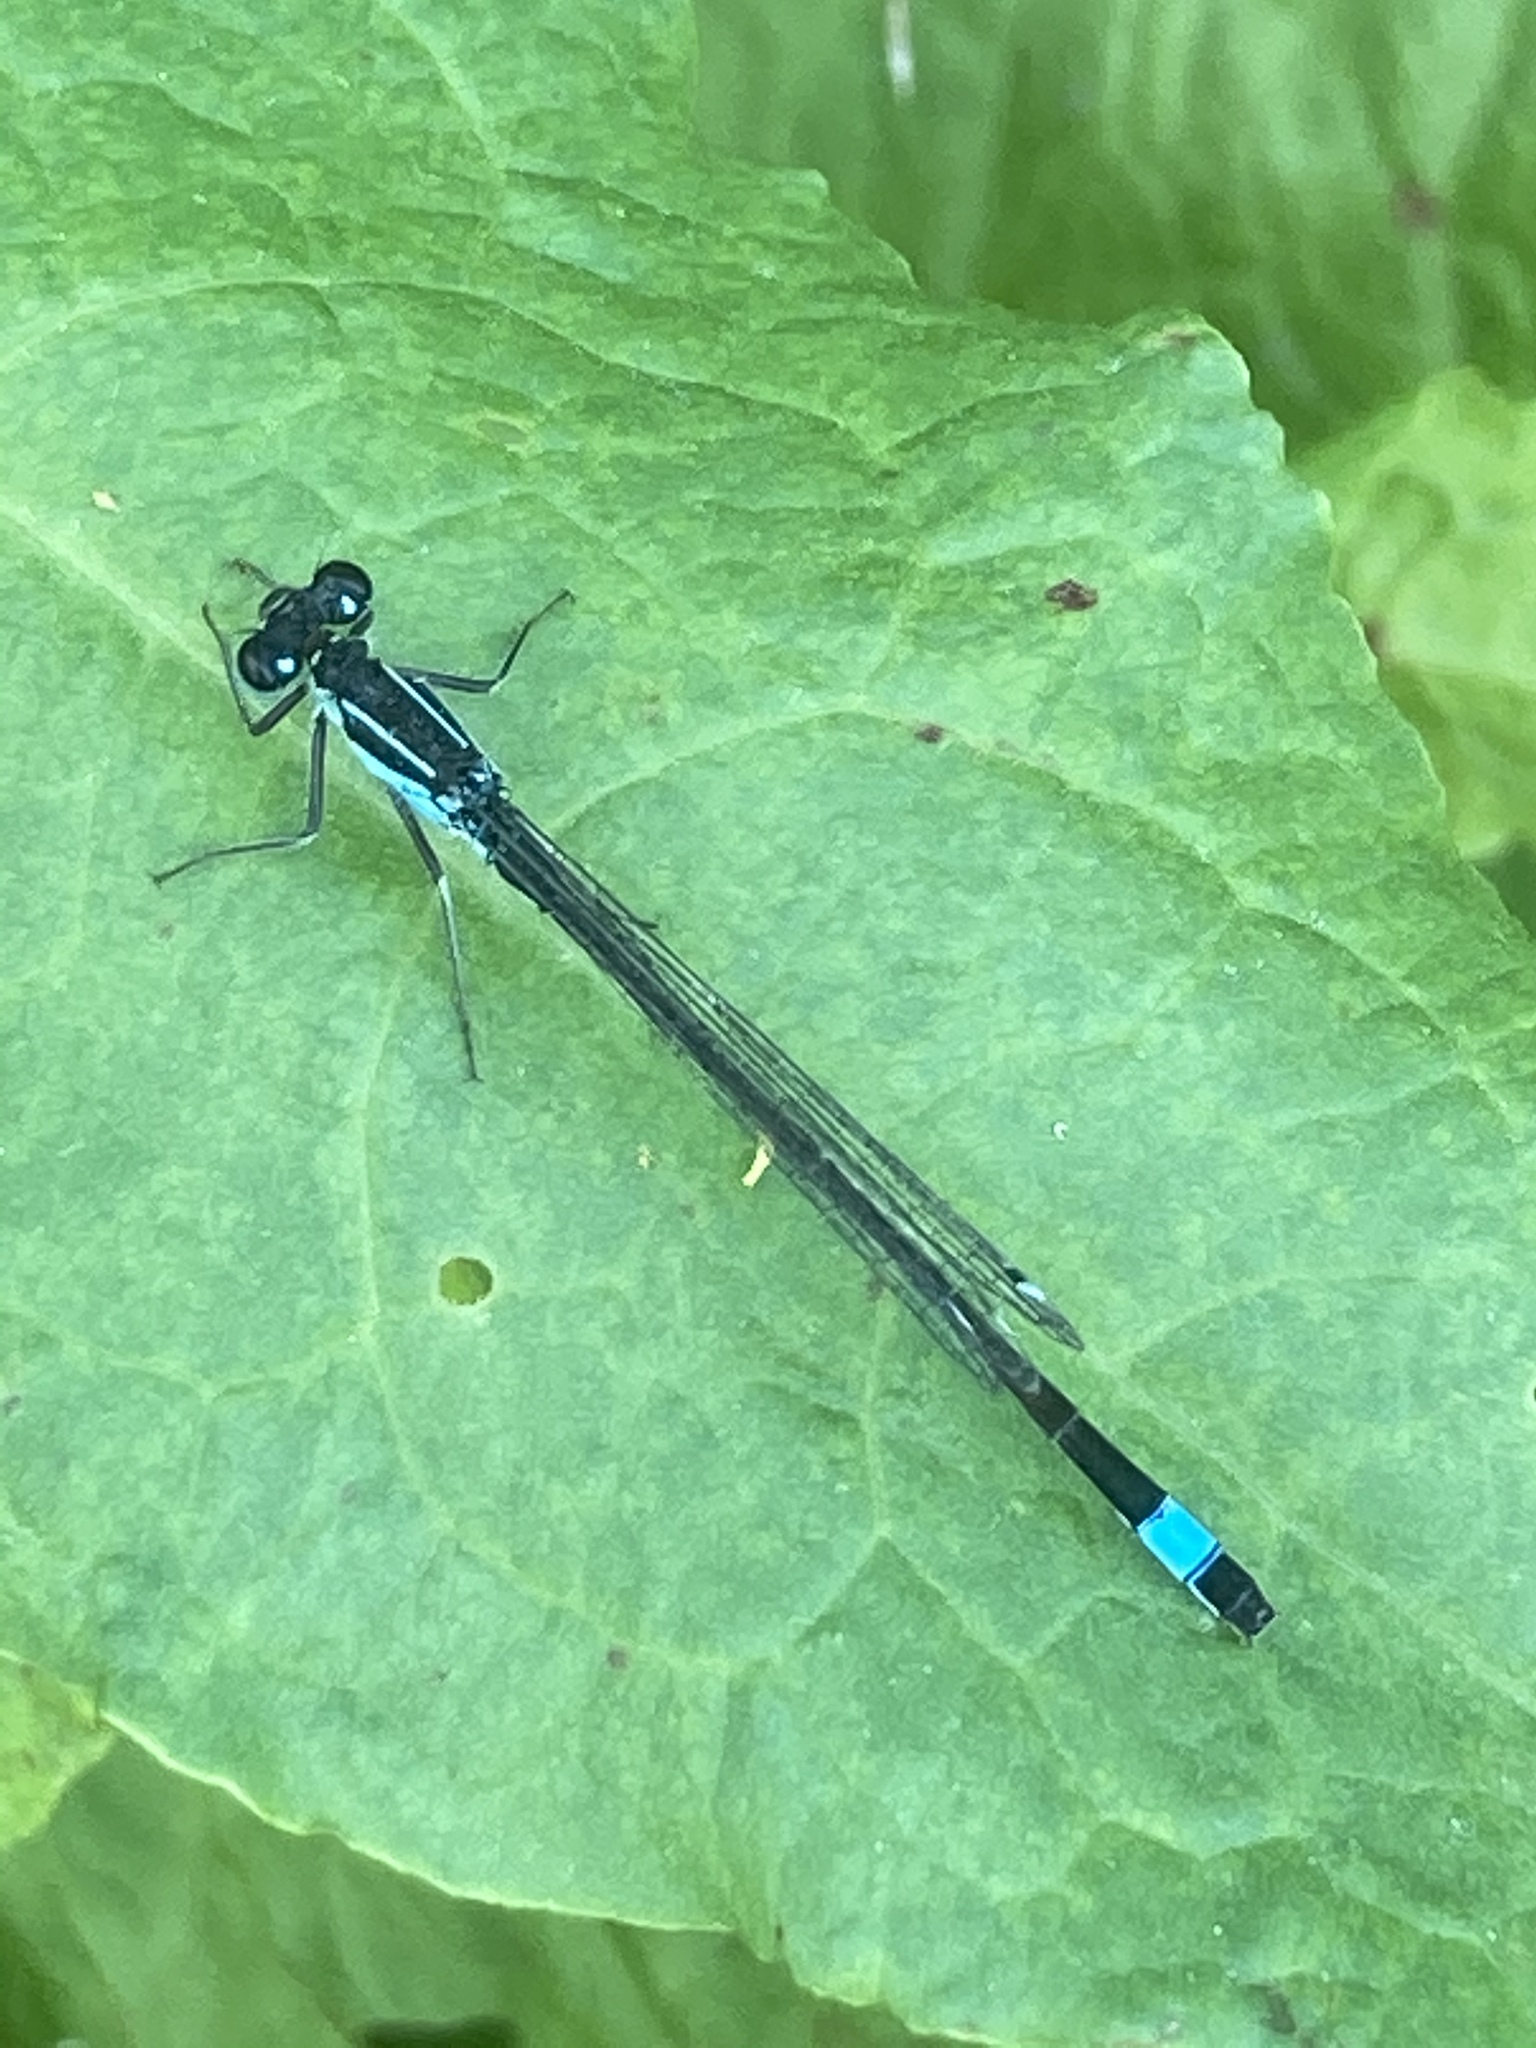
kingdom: Animalia
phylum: Arthropoda
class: Insecta
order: Odonata
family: Coenagrionidae
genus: Ischnura
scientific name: Ischnura elegans
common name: Blue-tailed damselfly
